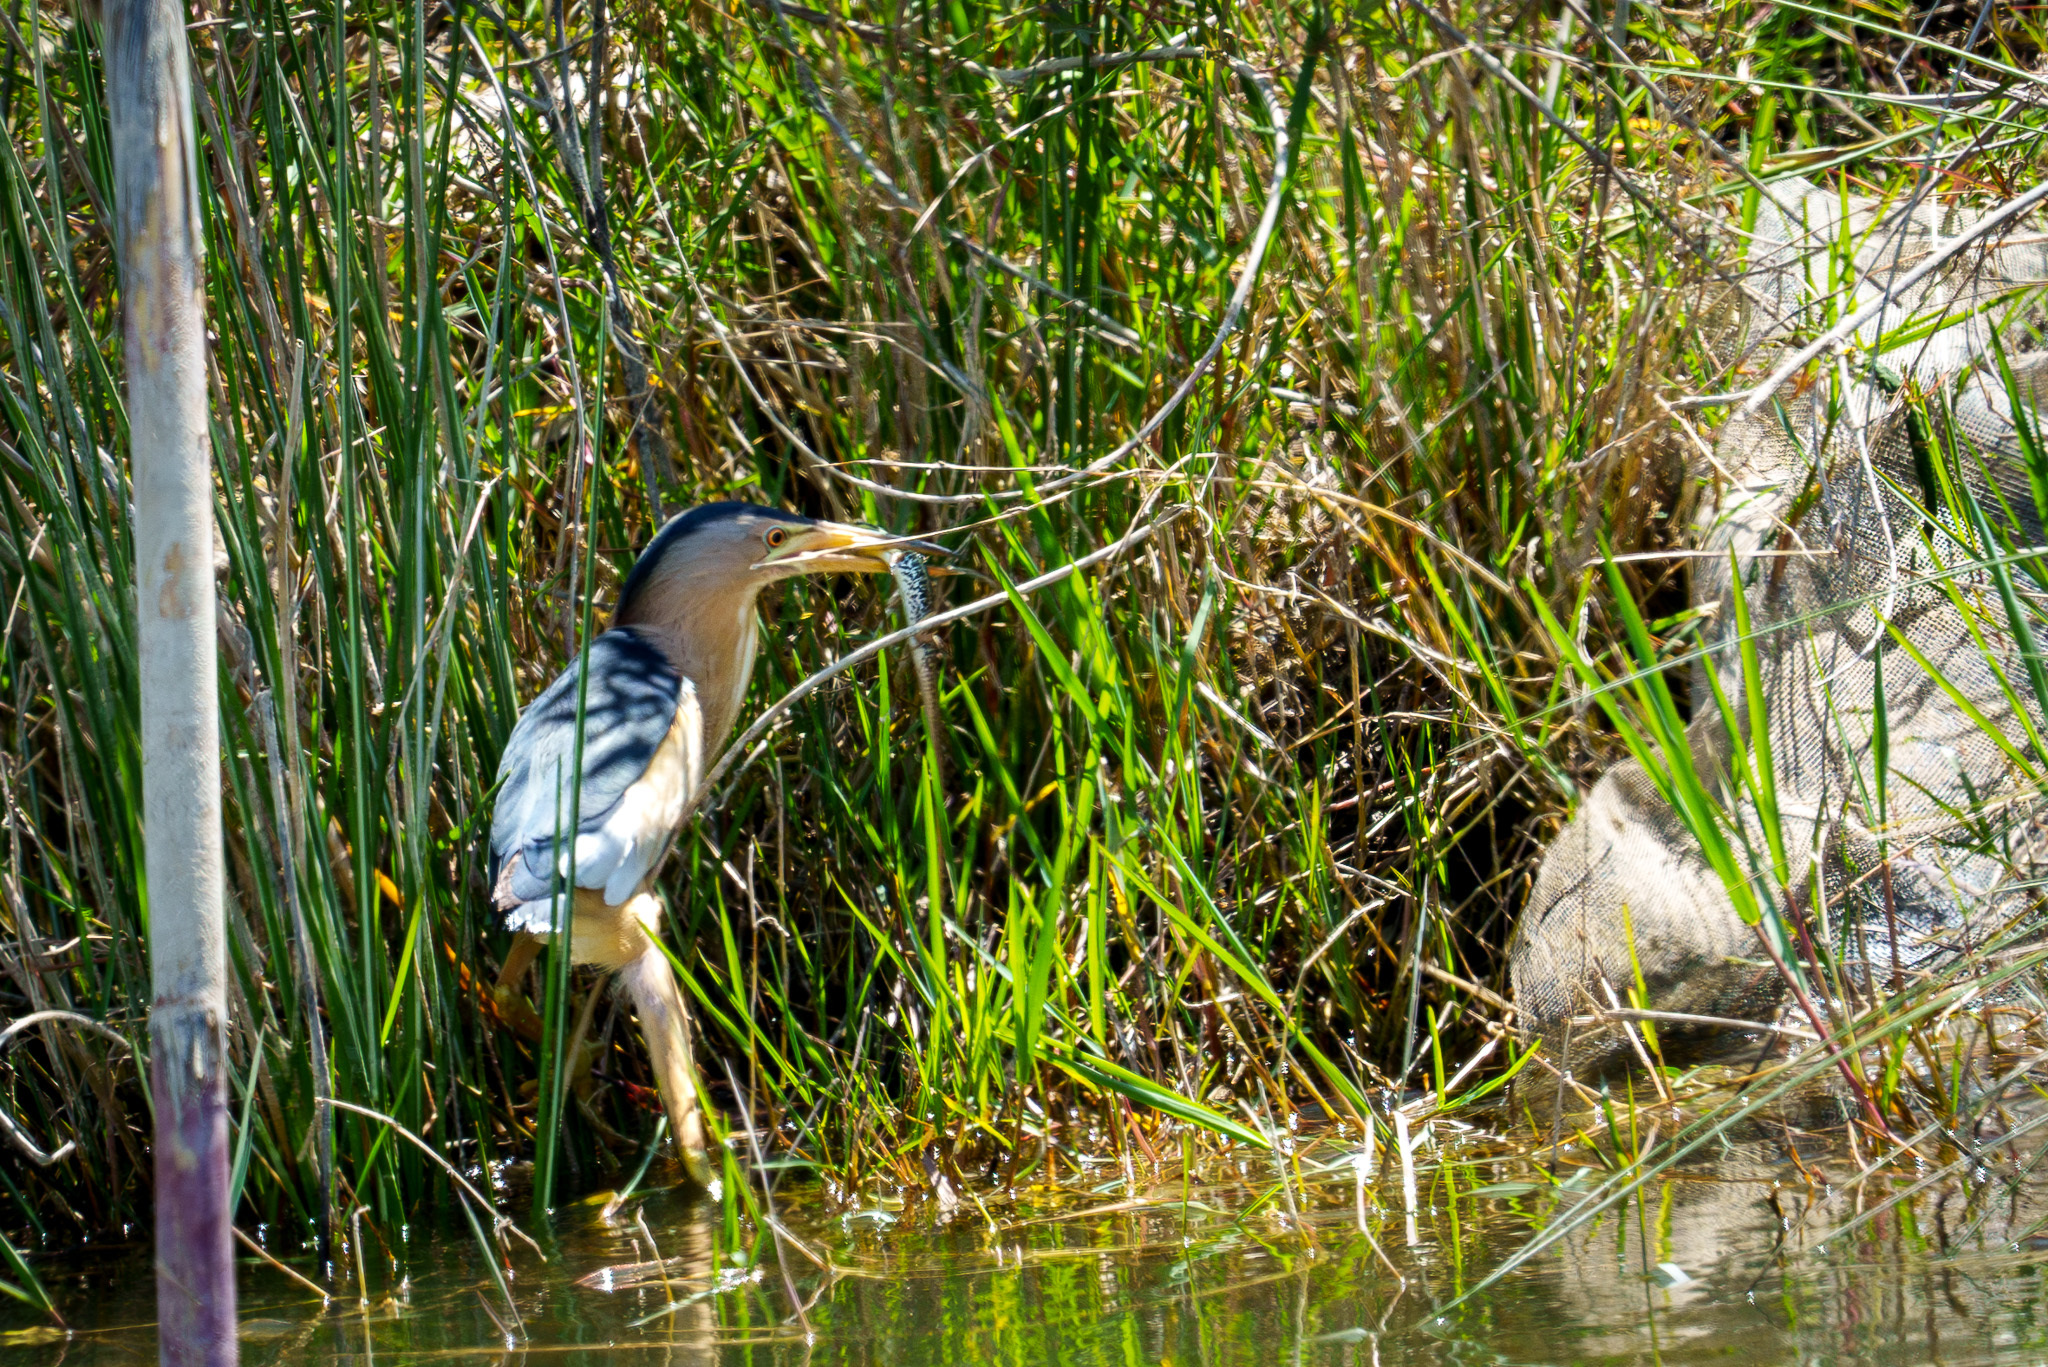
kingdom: Animalia
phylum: Chordata
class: Aves
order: Pelecaniformes
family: Ardeidae
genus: Ixobrychus
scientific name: Ixobrychus minutus
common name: Little bittern
